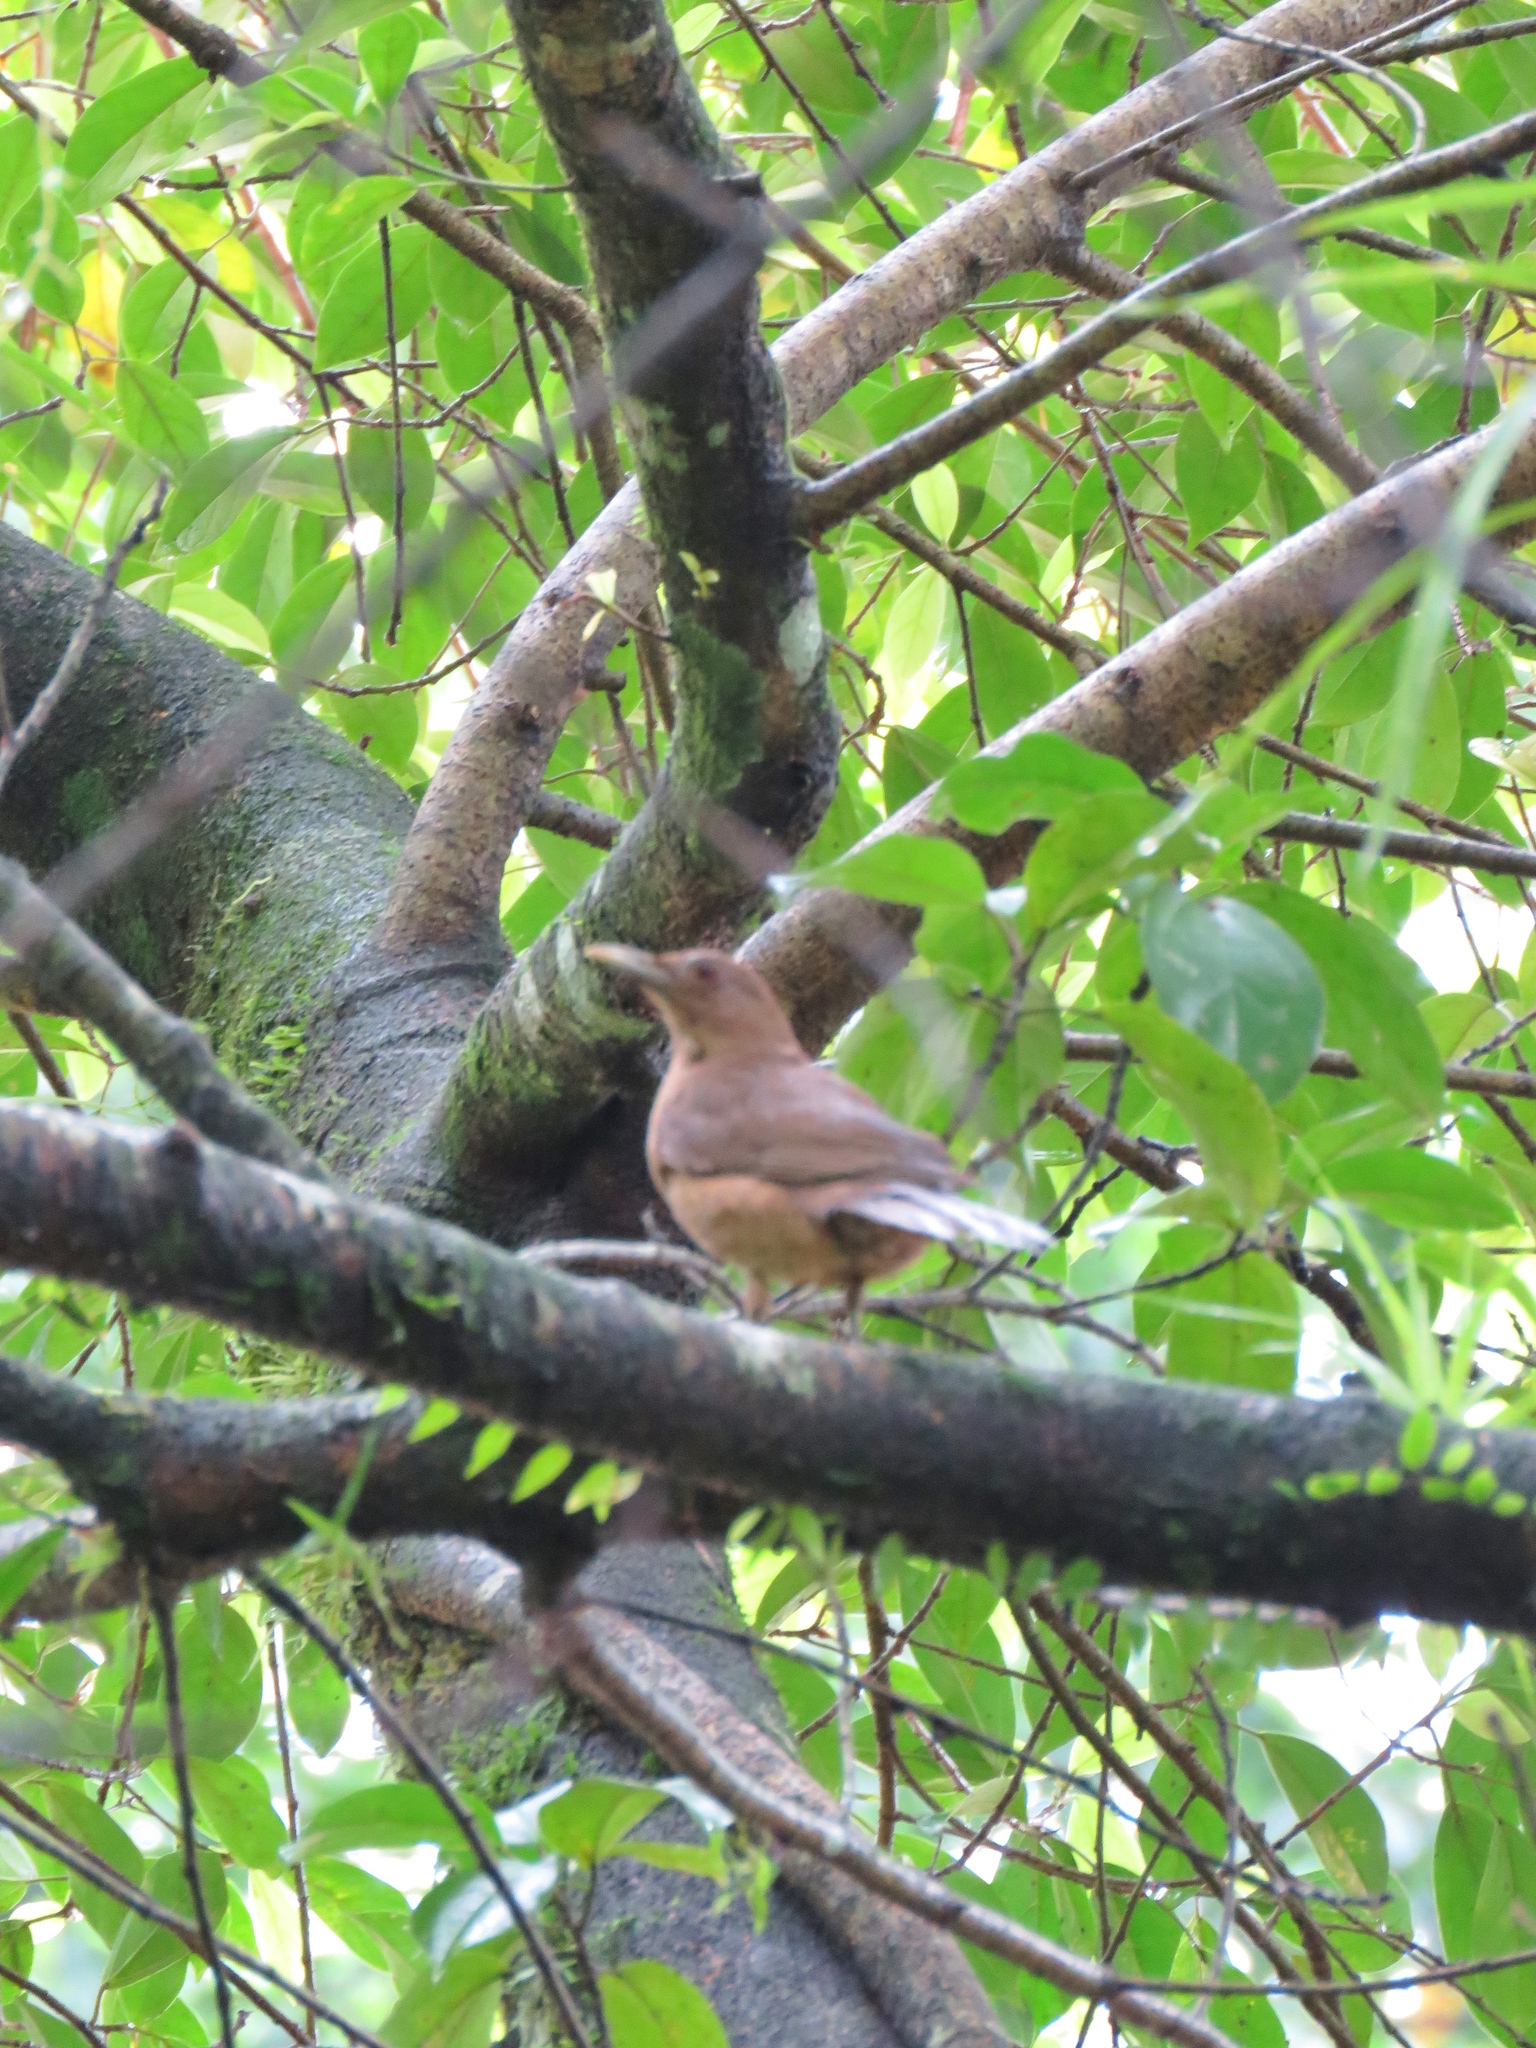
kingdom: Animalia
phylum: Chordata
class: Aves
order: Passeriformes
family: Turdidae
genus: Turdus
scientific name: Turdus grayi
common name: Clay-colored thrush
